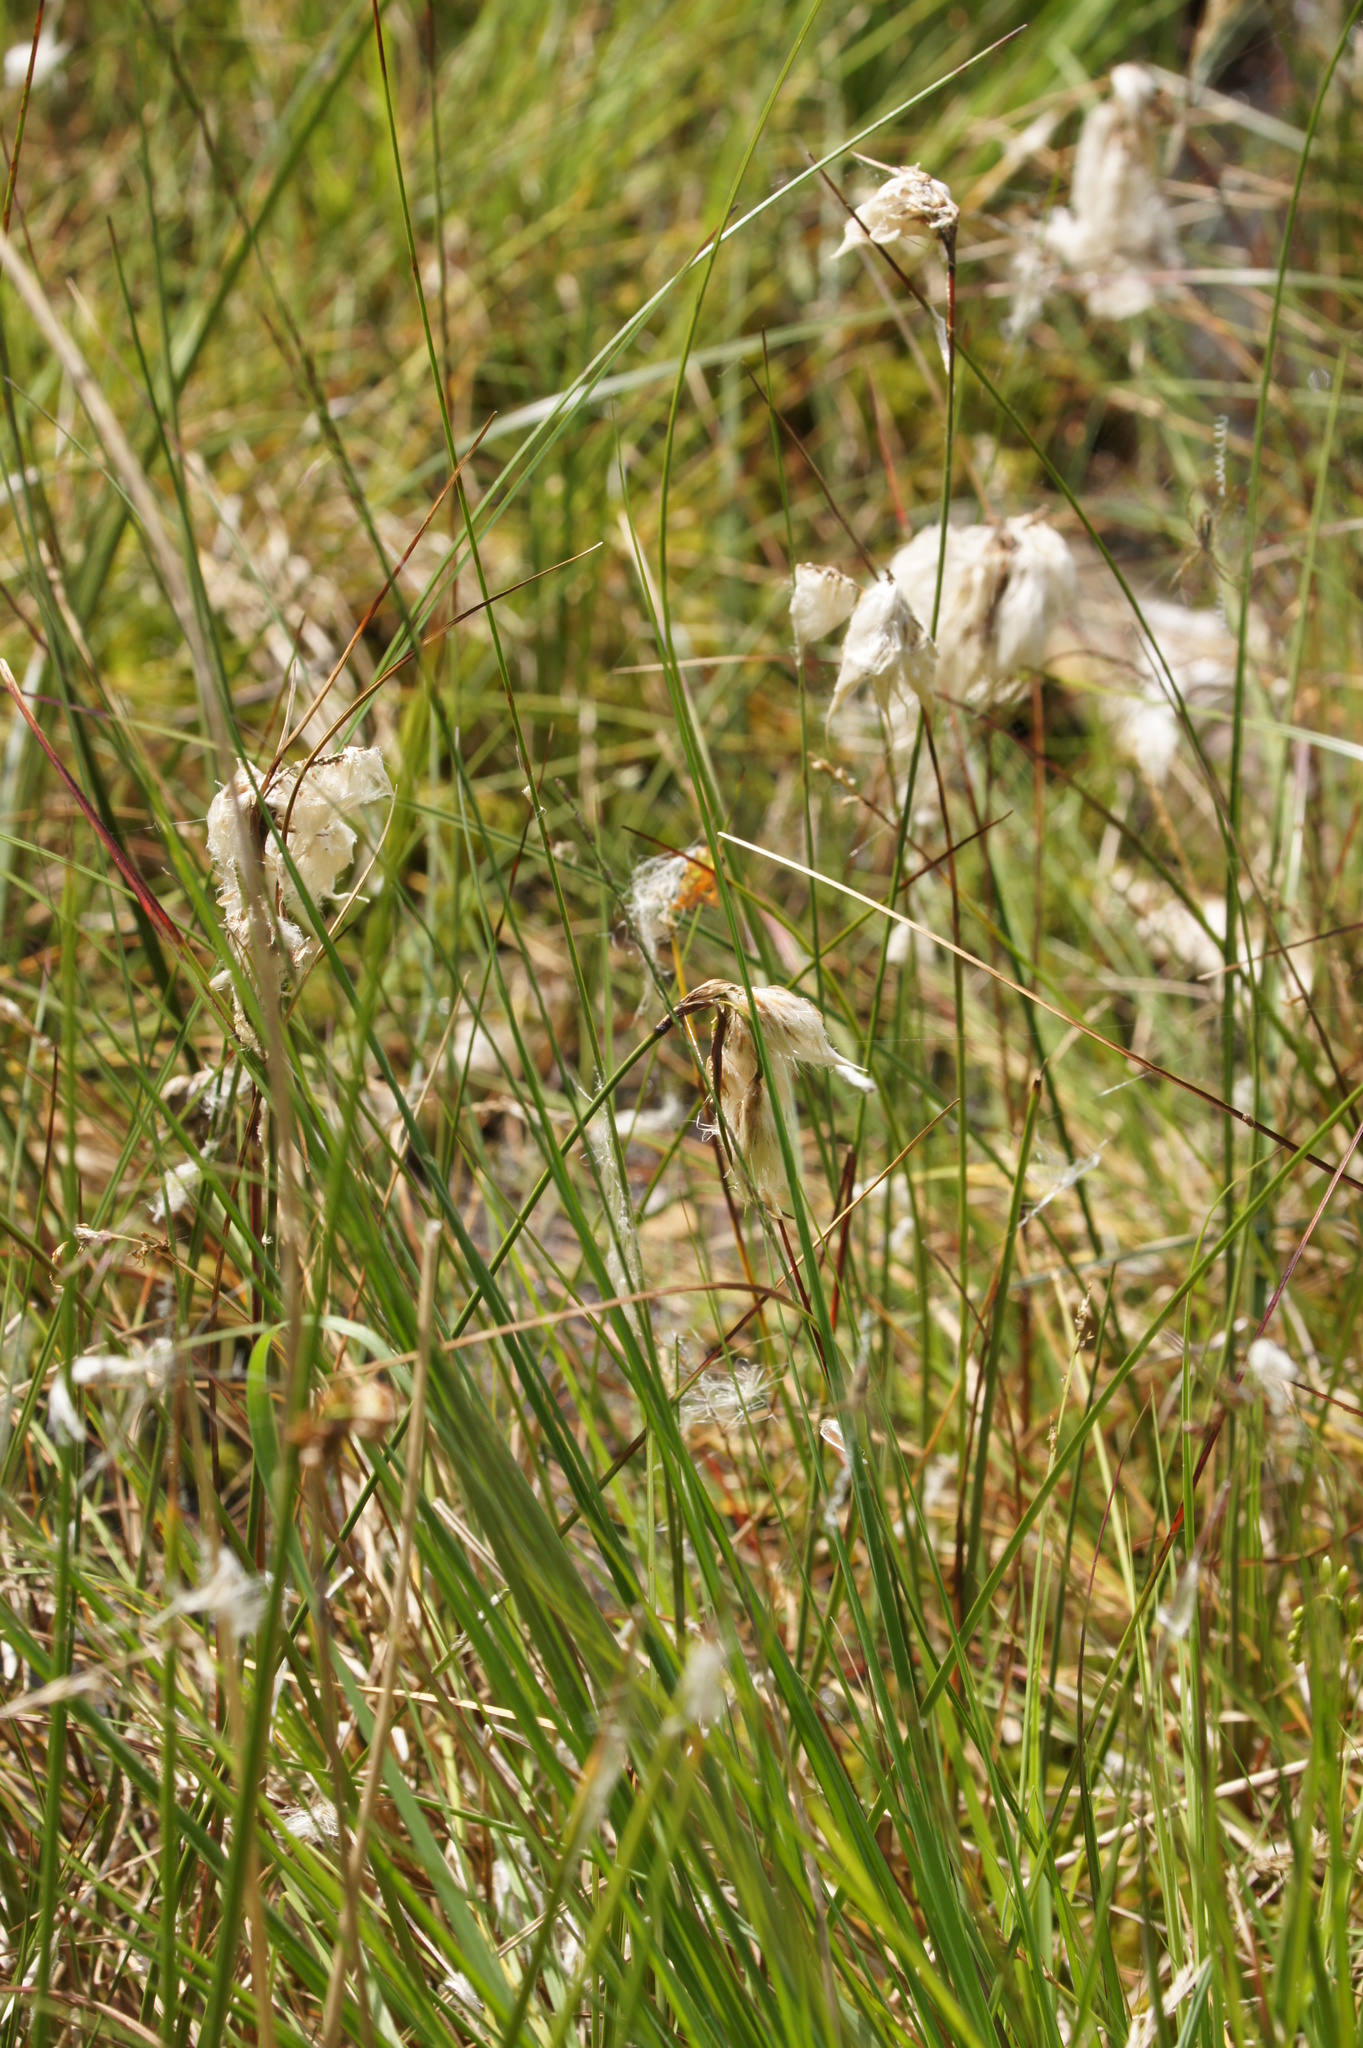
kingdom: Plantae
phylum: Tracheophyta
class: Liliopsida
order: Poales
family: Cyperaceae
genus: Eriophorum
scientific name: Eriophorum angustifolium
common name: Common cottongrass
